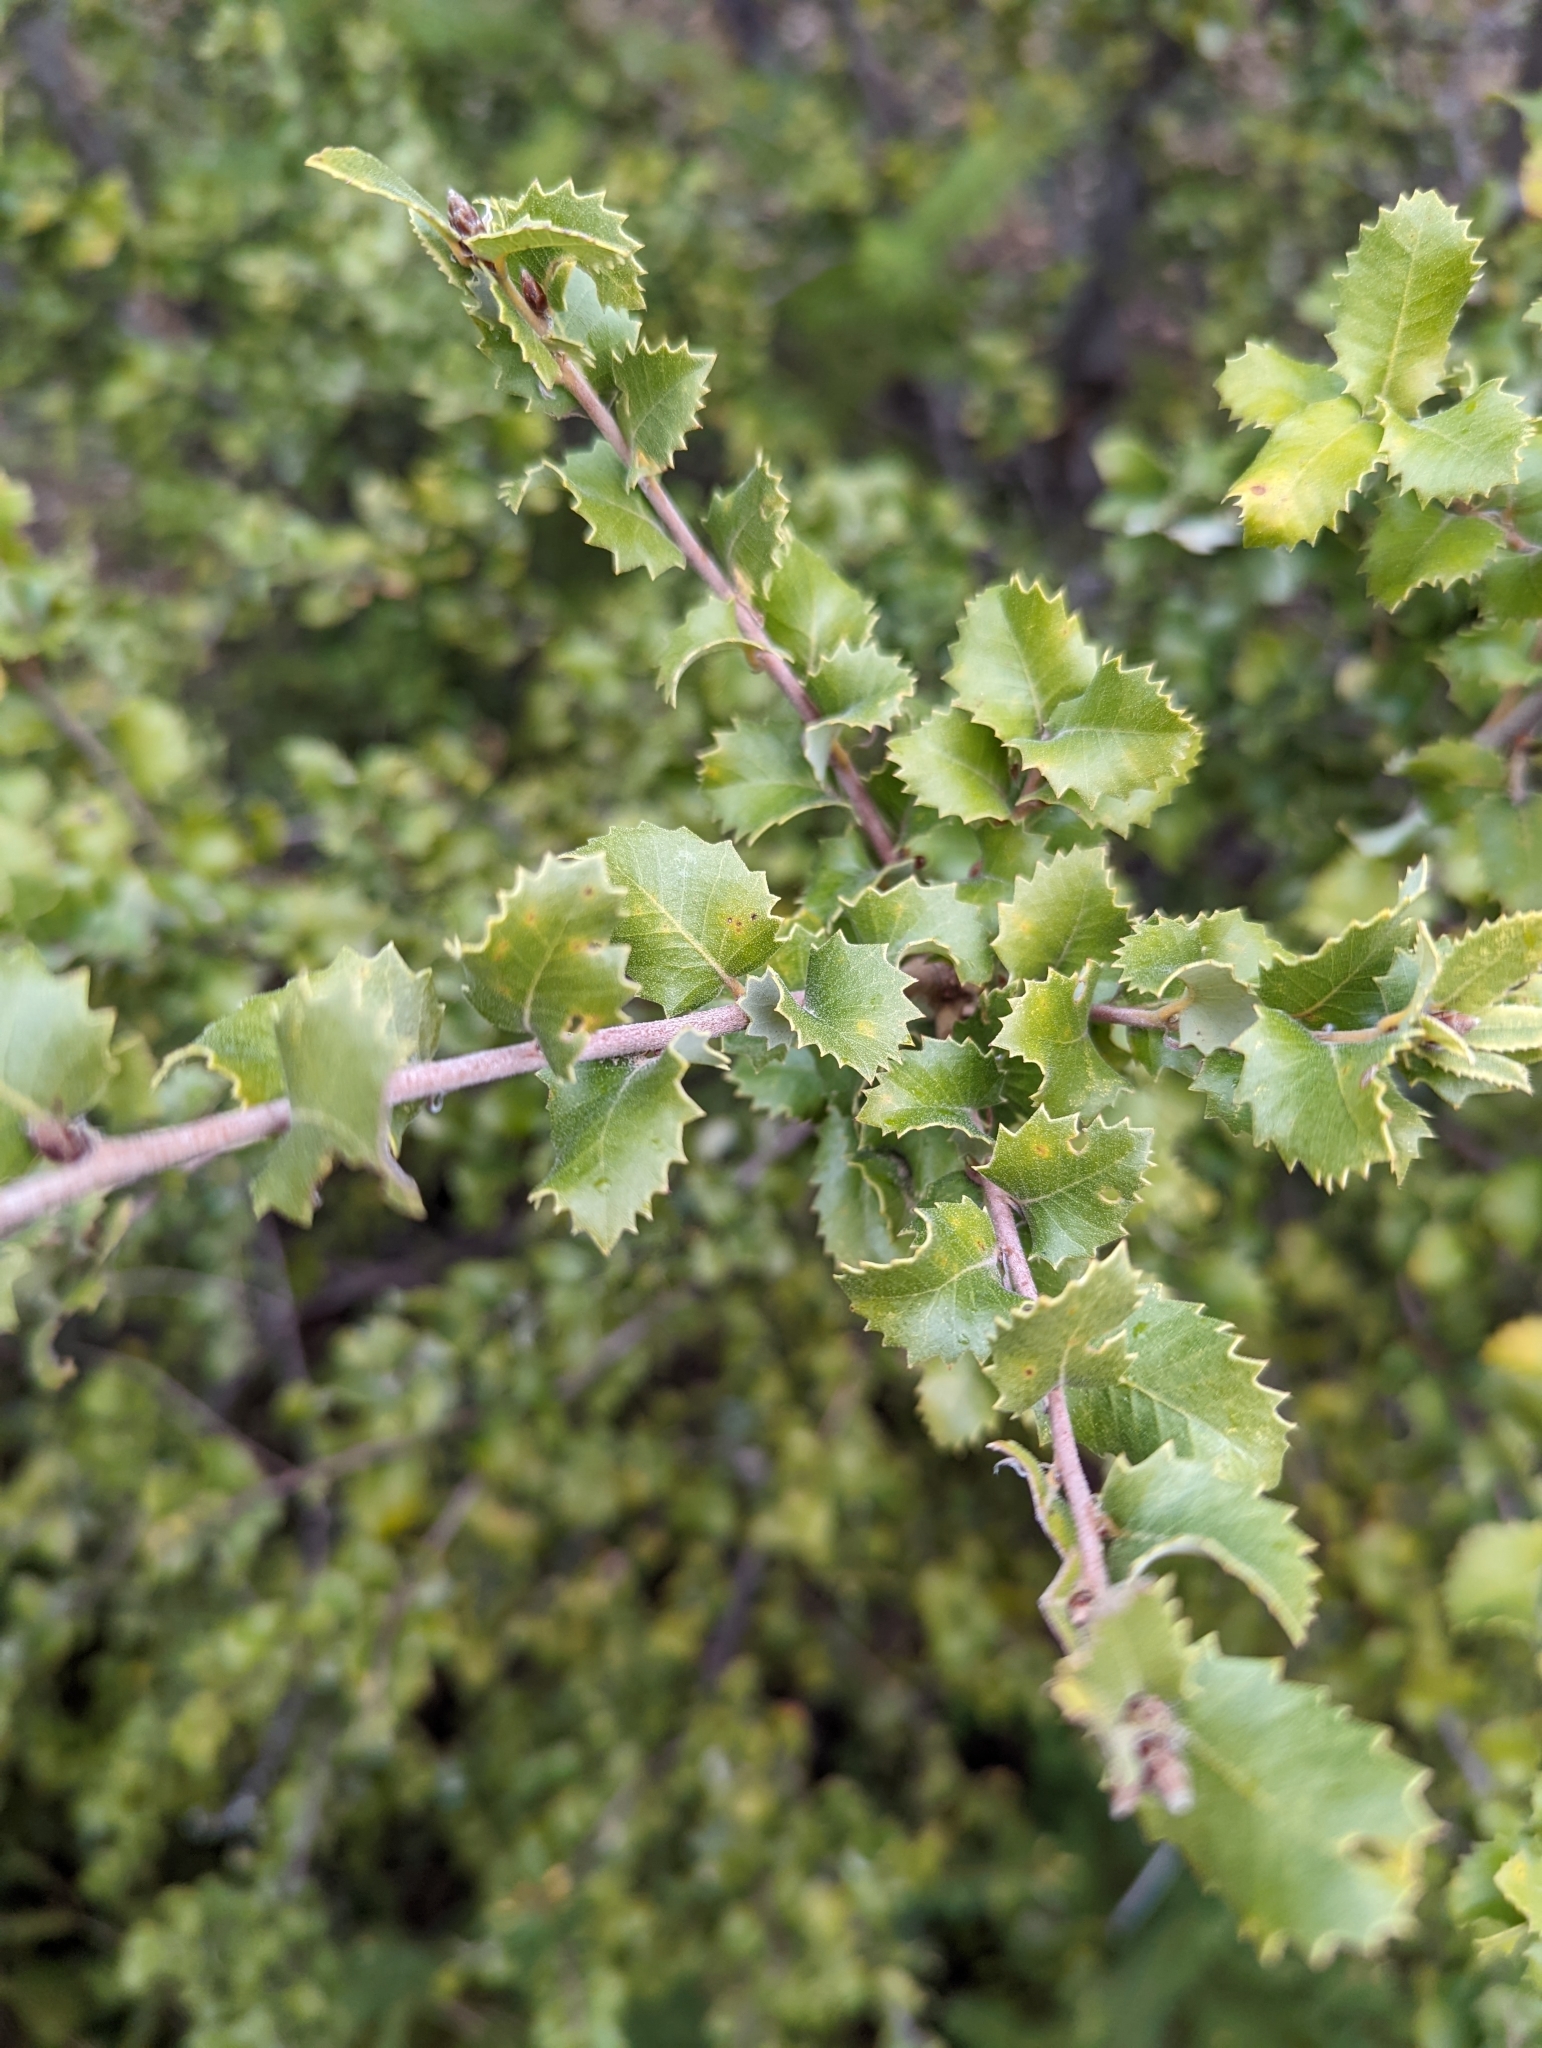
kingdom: Plantae
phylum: Tracheophyta
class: Magnoliopsida
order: Fagales
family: Fagaceae
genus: Quercus
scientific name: Quercus chrysolepis
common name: Canyon live oak
